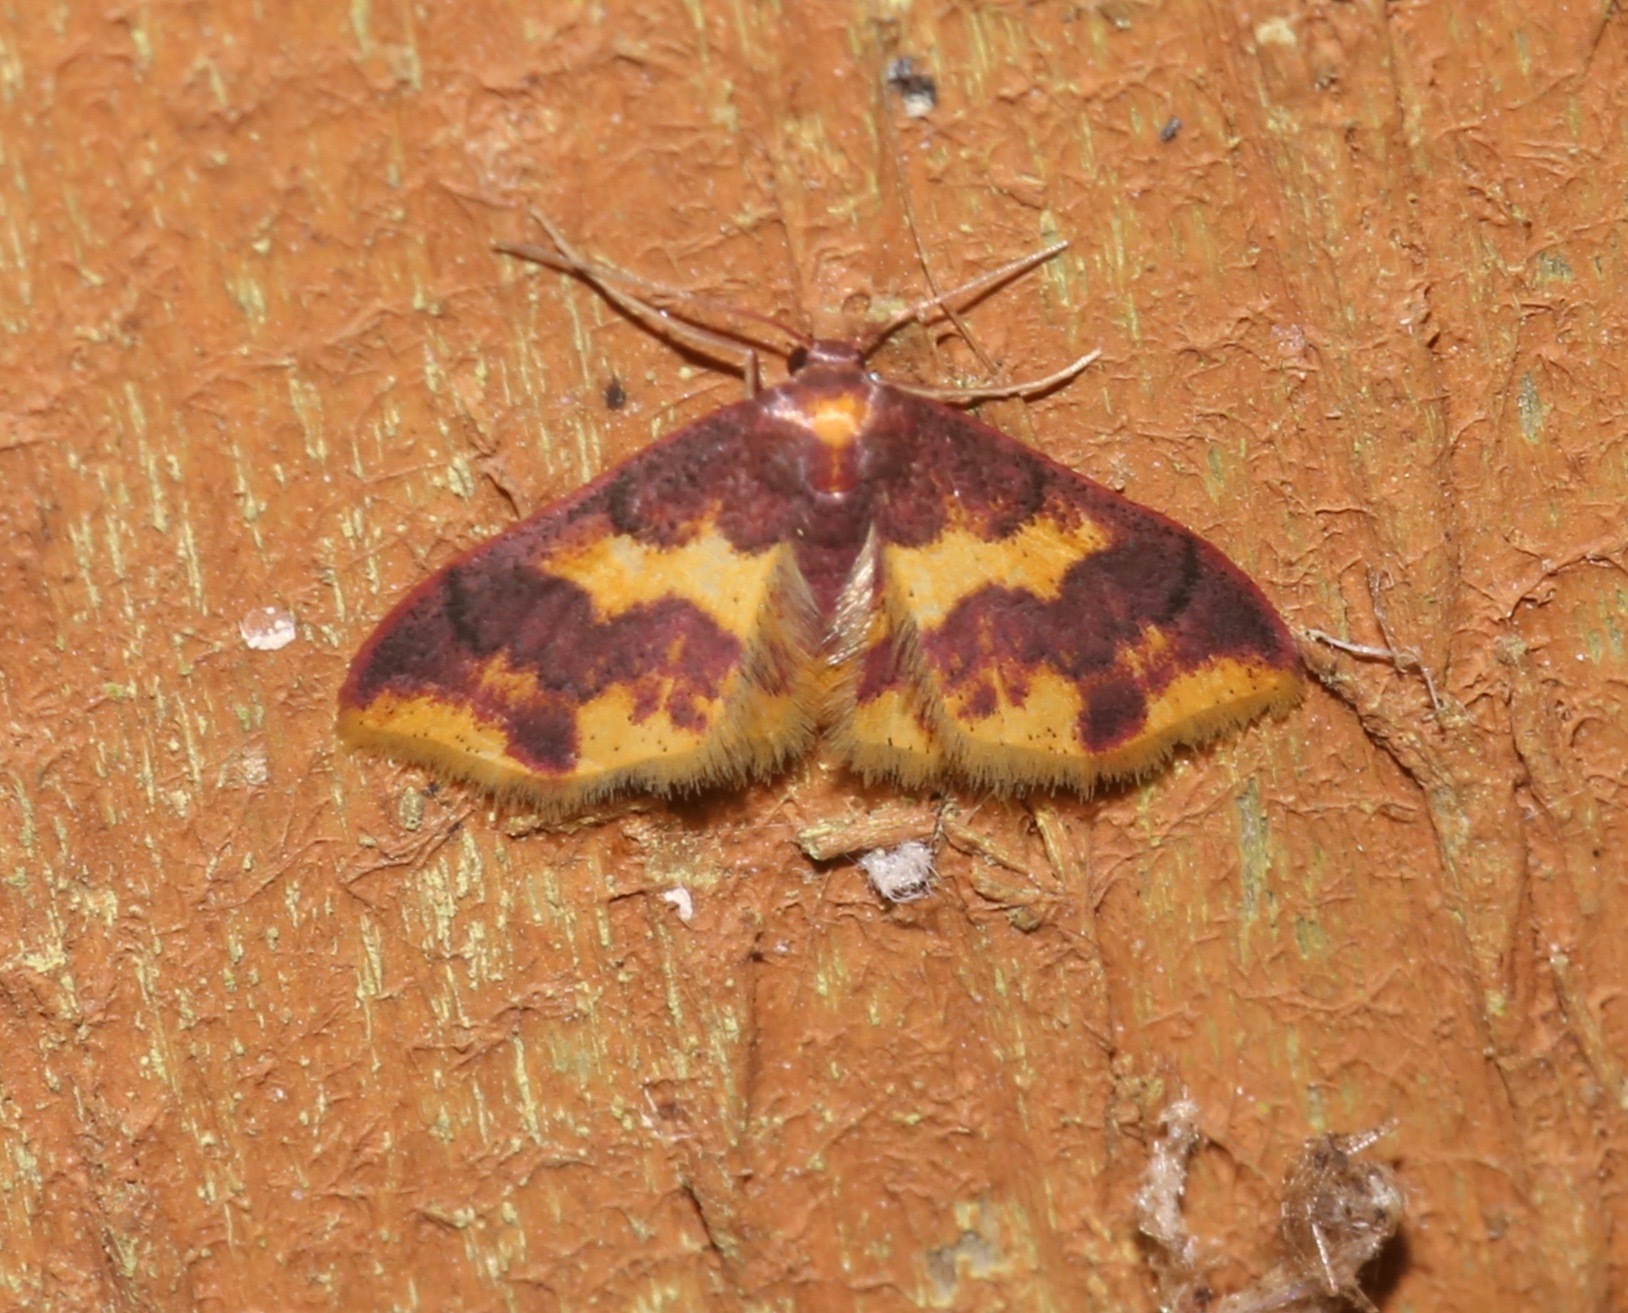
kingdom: Animalia
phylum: Arthropoda
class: Insecta
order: Lepidoptera
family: Geometridae
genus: Lophosis
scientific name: Lophosis labeculata
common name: Stained lophosis moth
